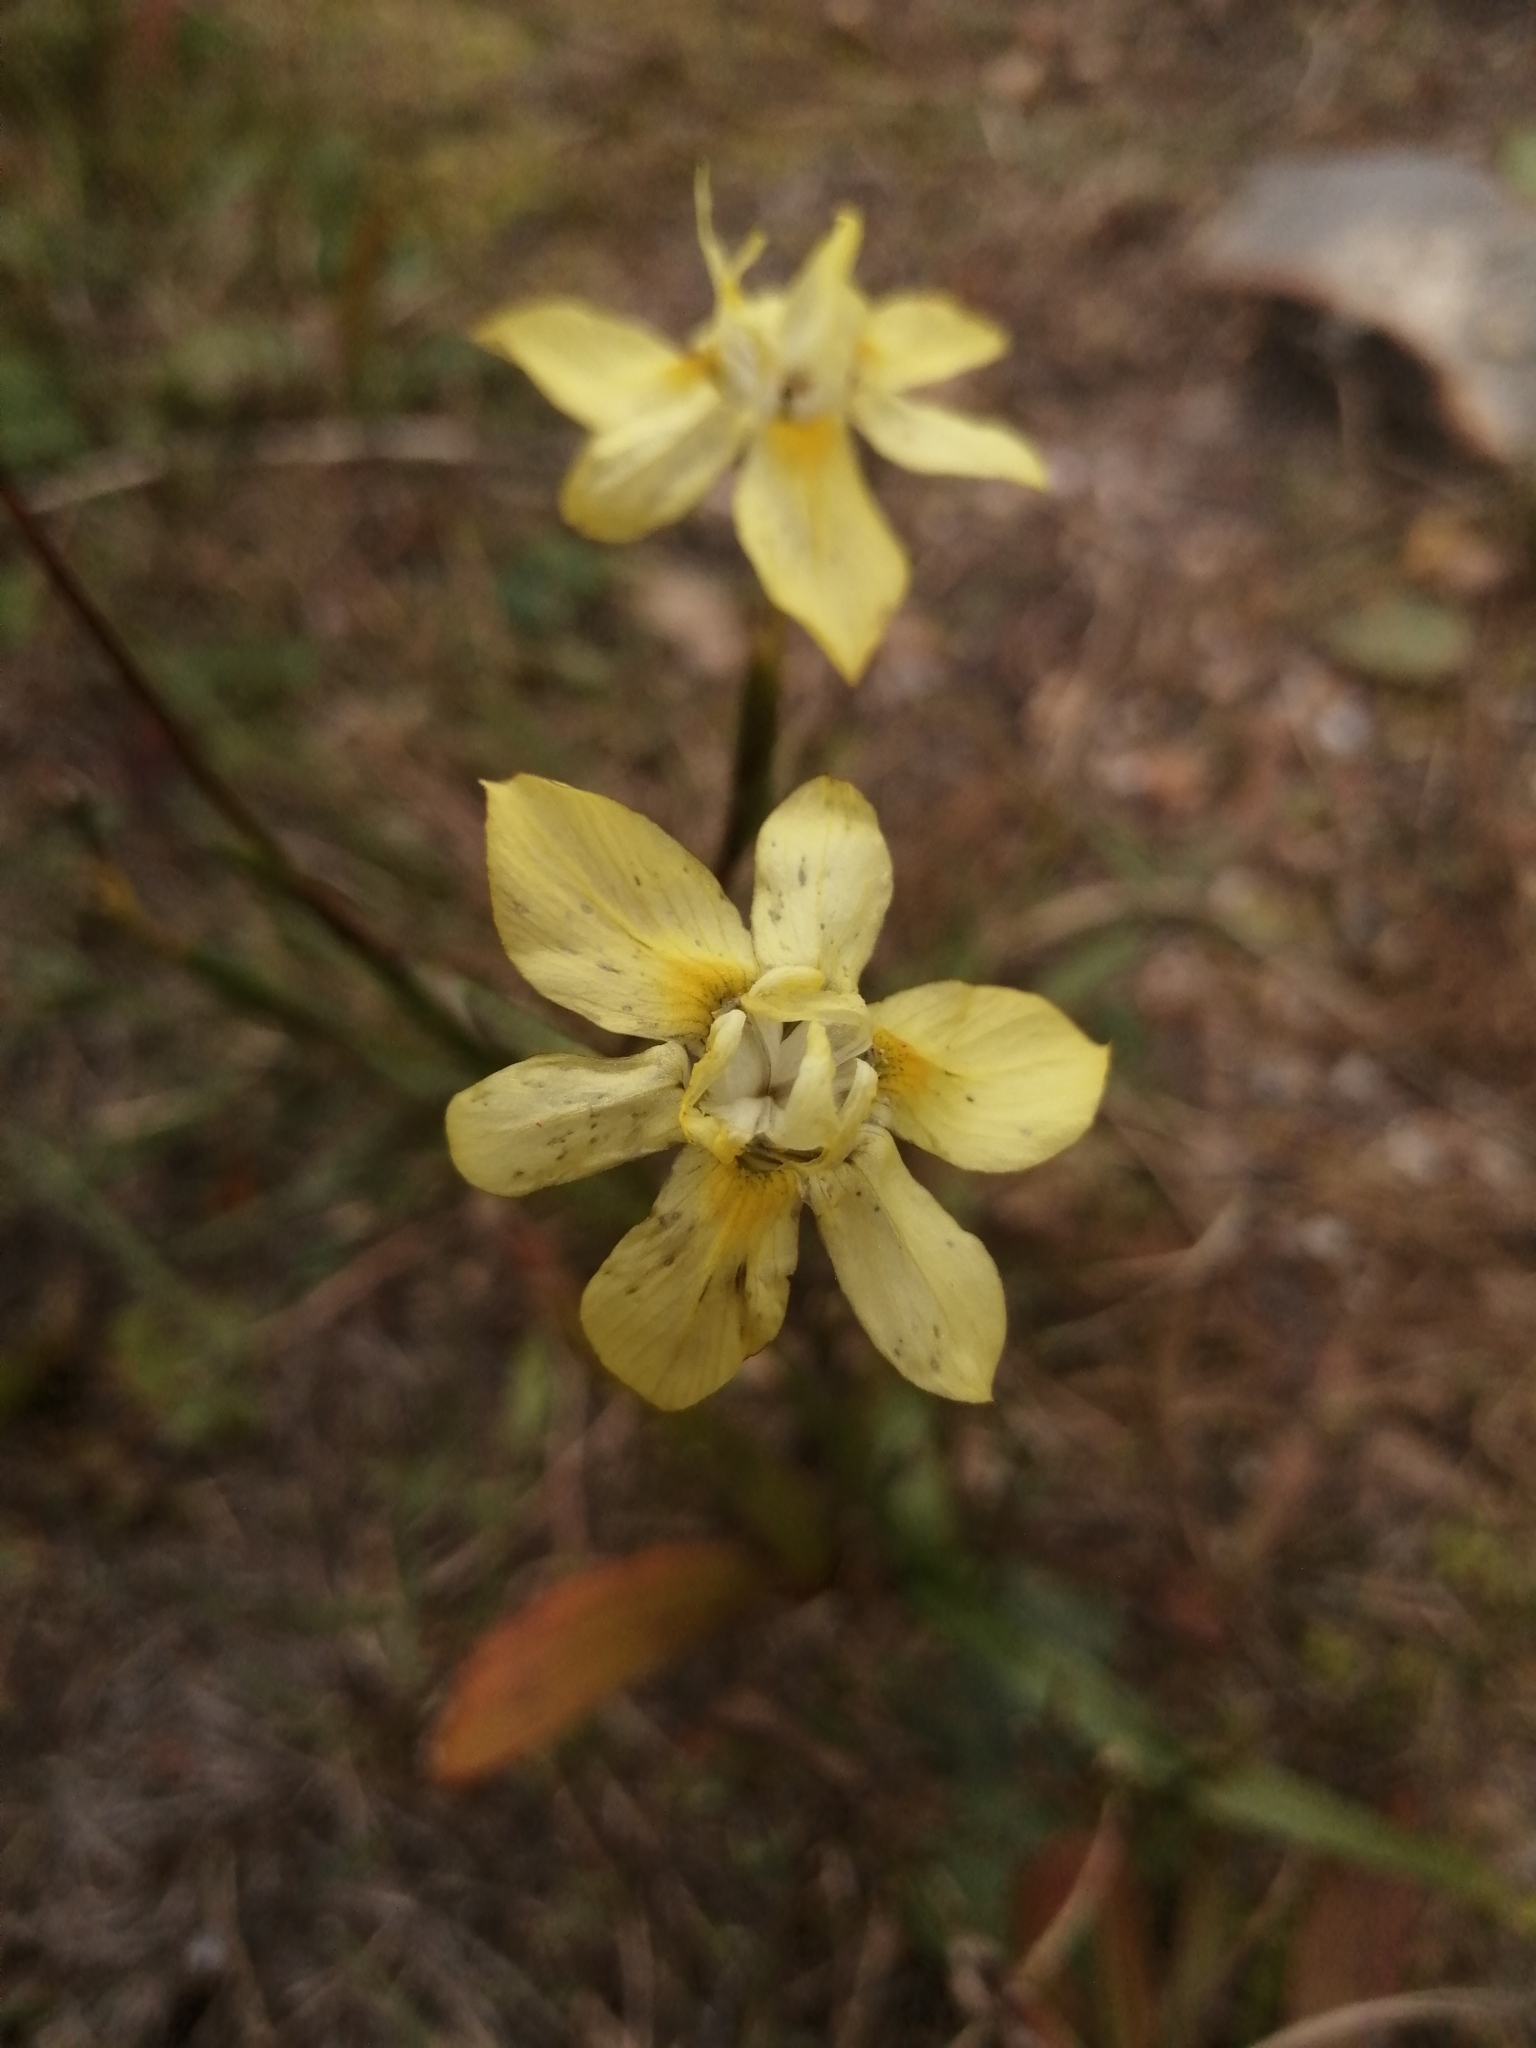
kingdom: Plantae
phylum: Tracheophyta
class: Liliopsida
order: Asparagales
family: Iridaceae
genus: Moraea
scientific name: Moraea gawleri
